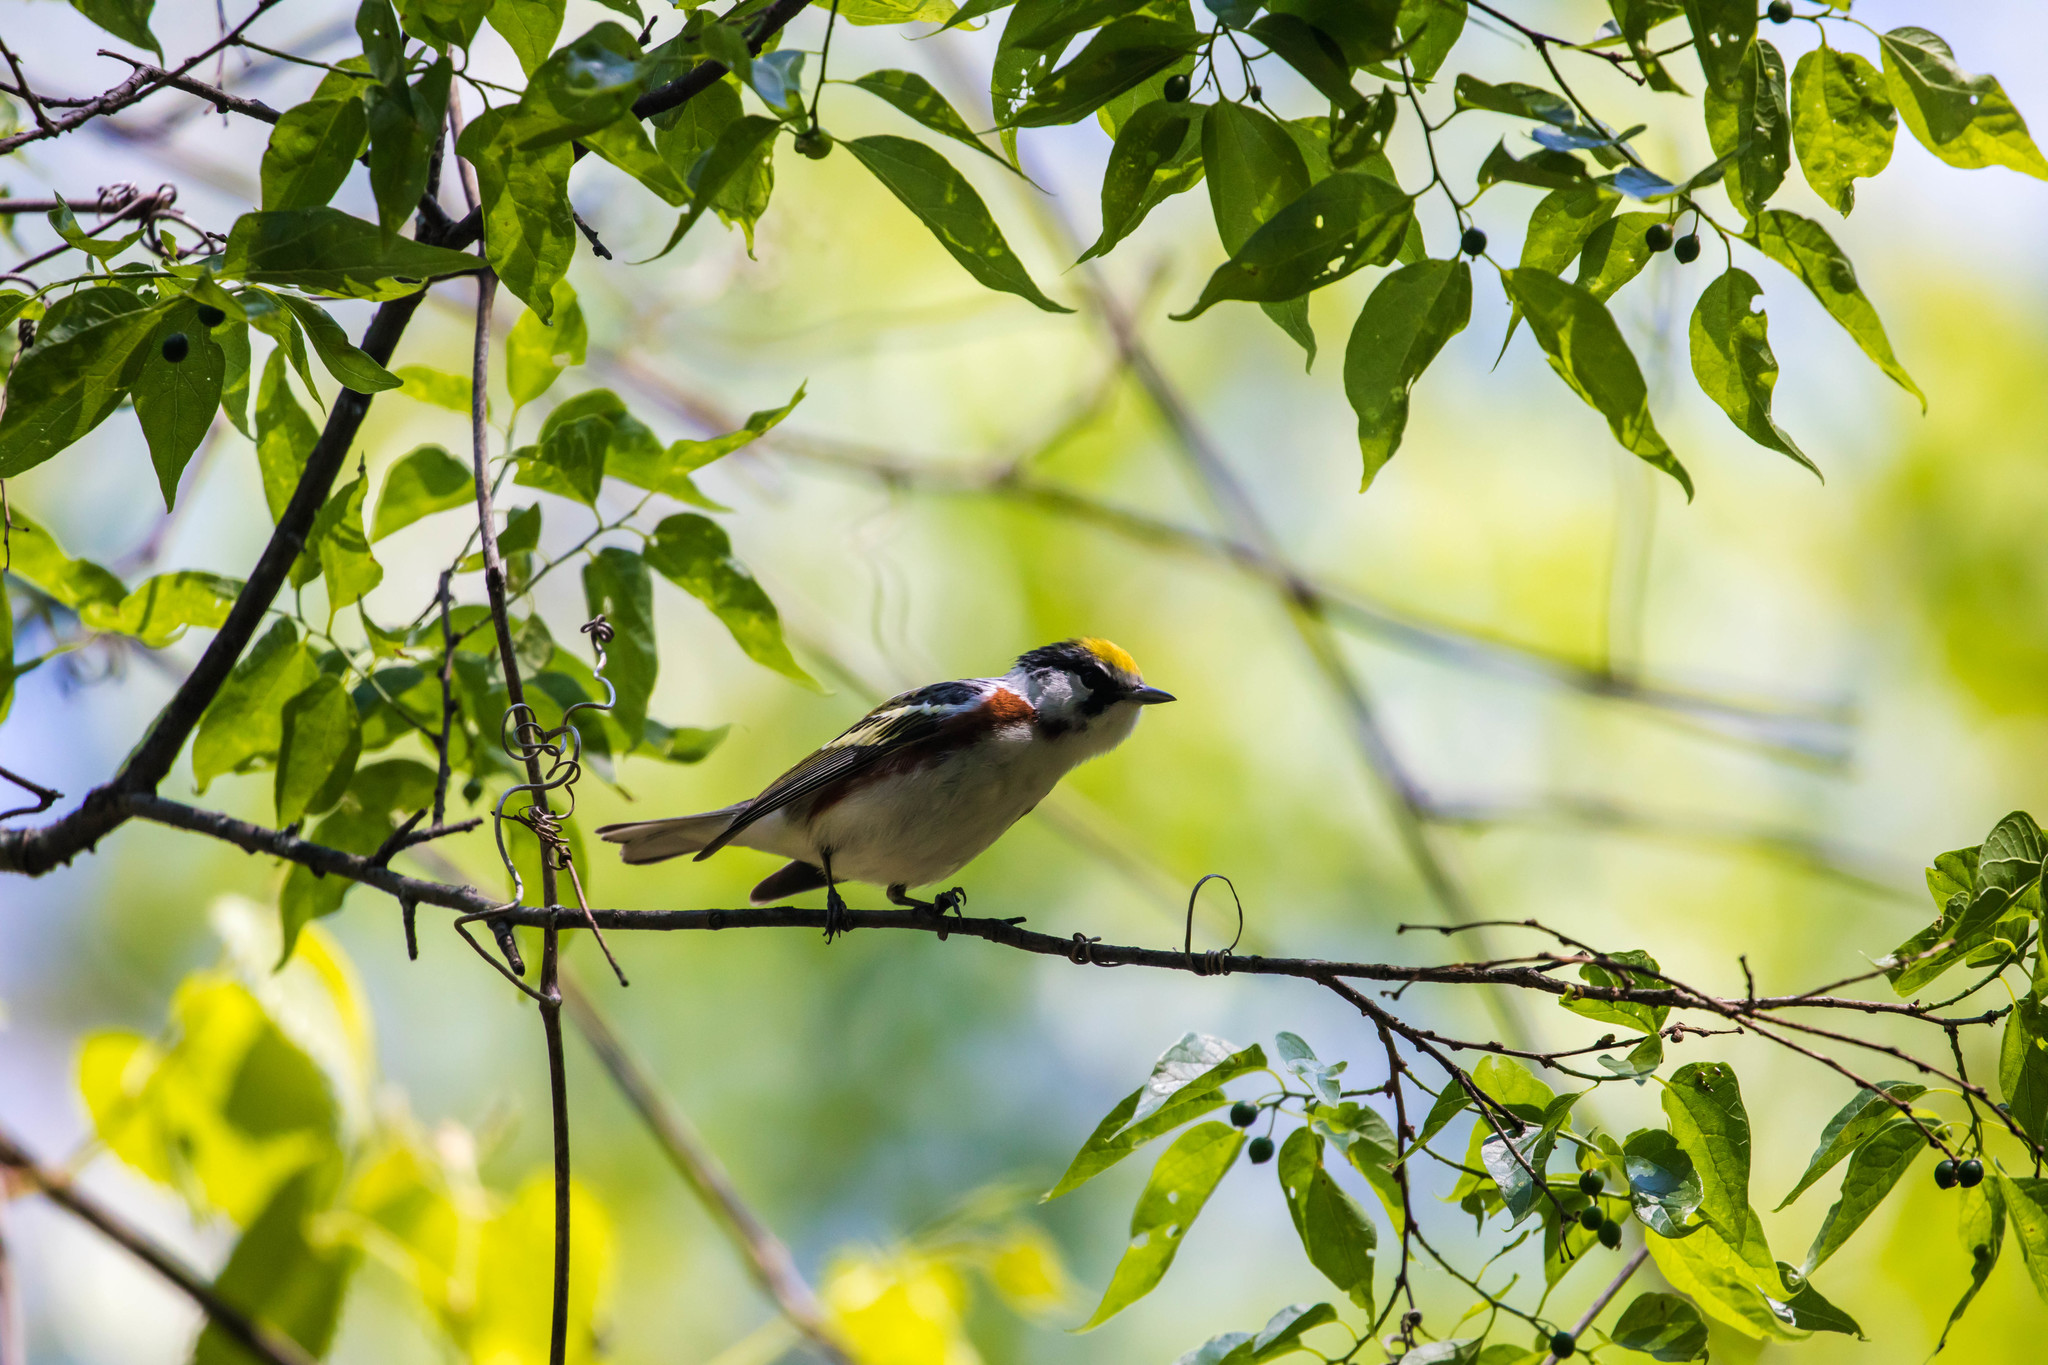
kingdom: Animalia
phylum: Chordata
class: Aves
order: Passeriformes
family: Parulidae
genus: Setophaga
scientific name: Setophaga pensylvanica
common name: Chestnut-sided warbler
